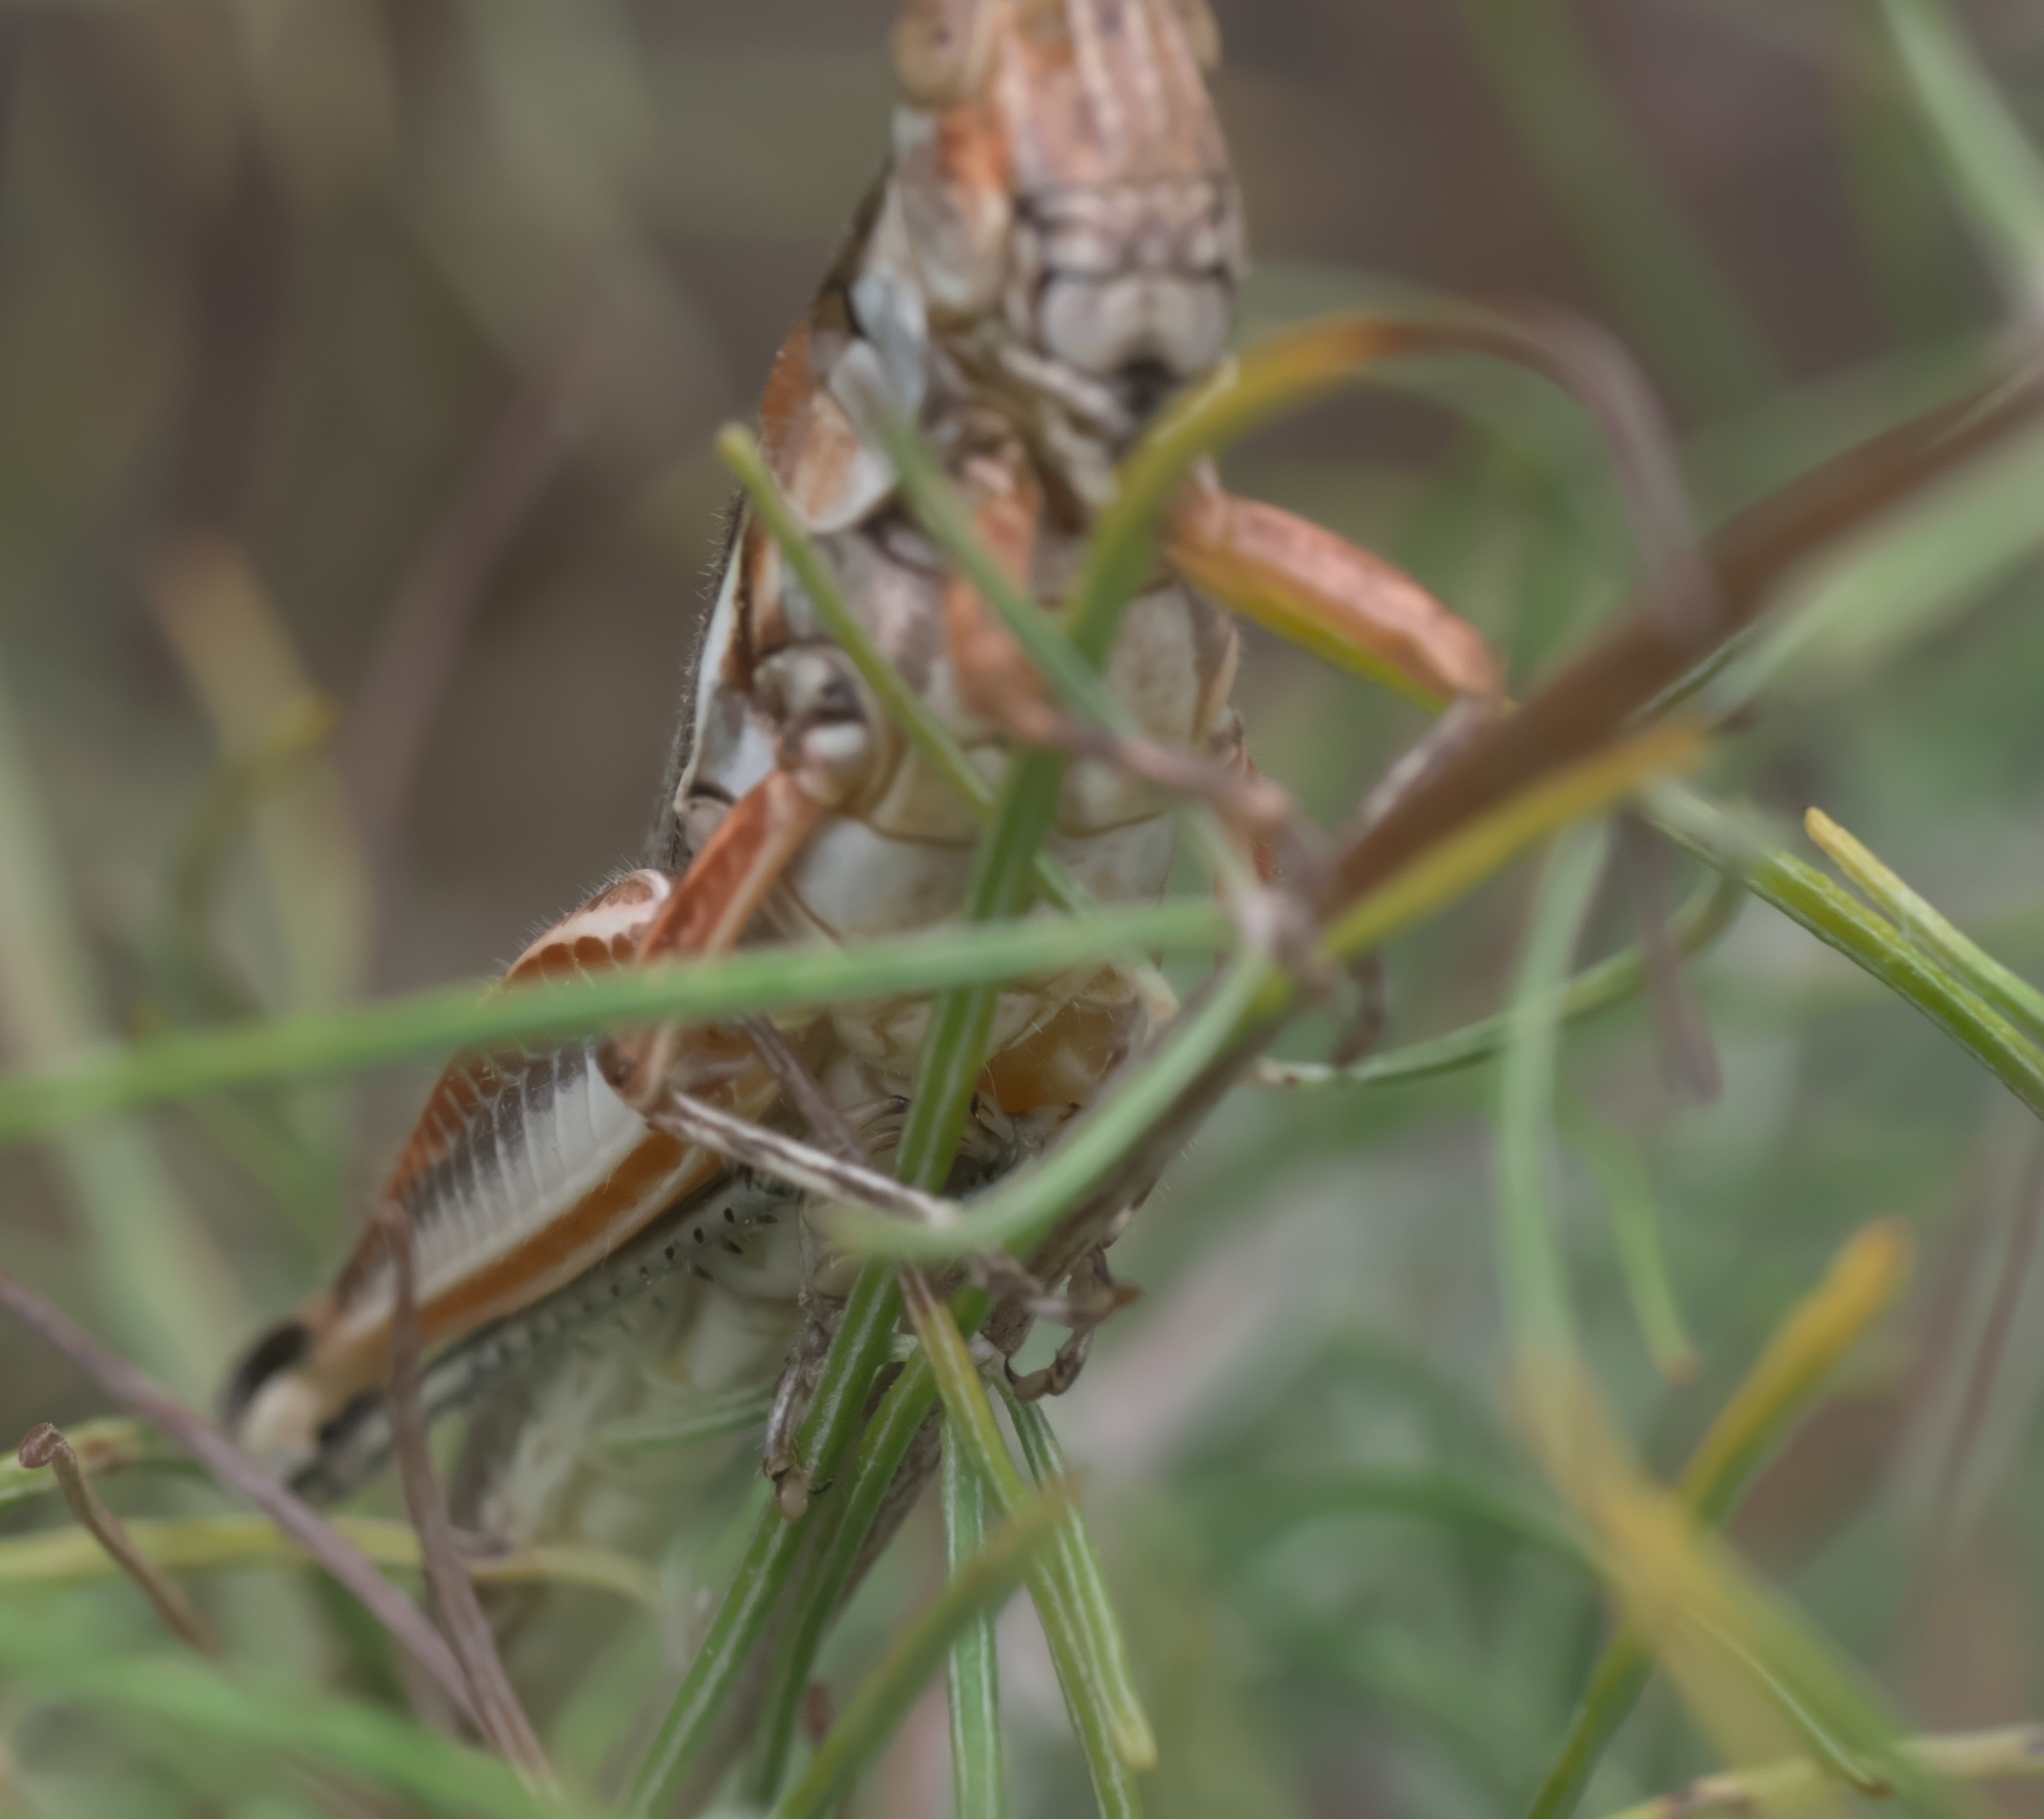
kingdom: Animalia
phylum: Arthropoda
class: Insecta
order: Orthoptera
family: Acrididae
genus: Melanoplus
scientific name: Melanoplus bowditchi
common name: Sagebrush grasshopper
